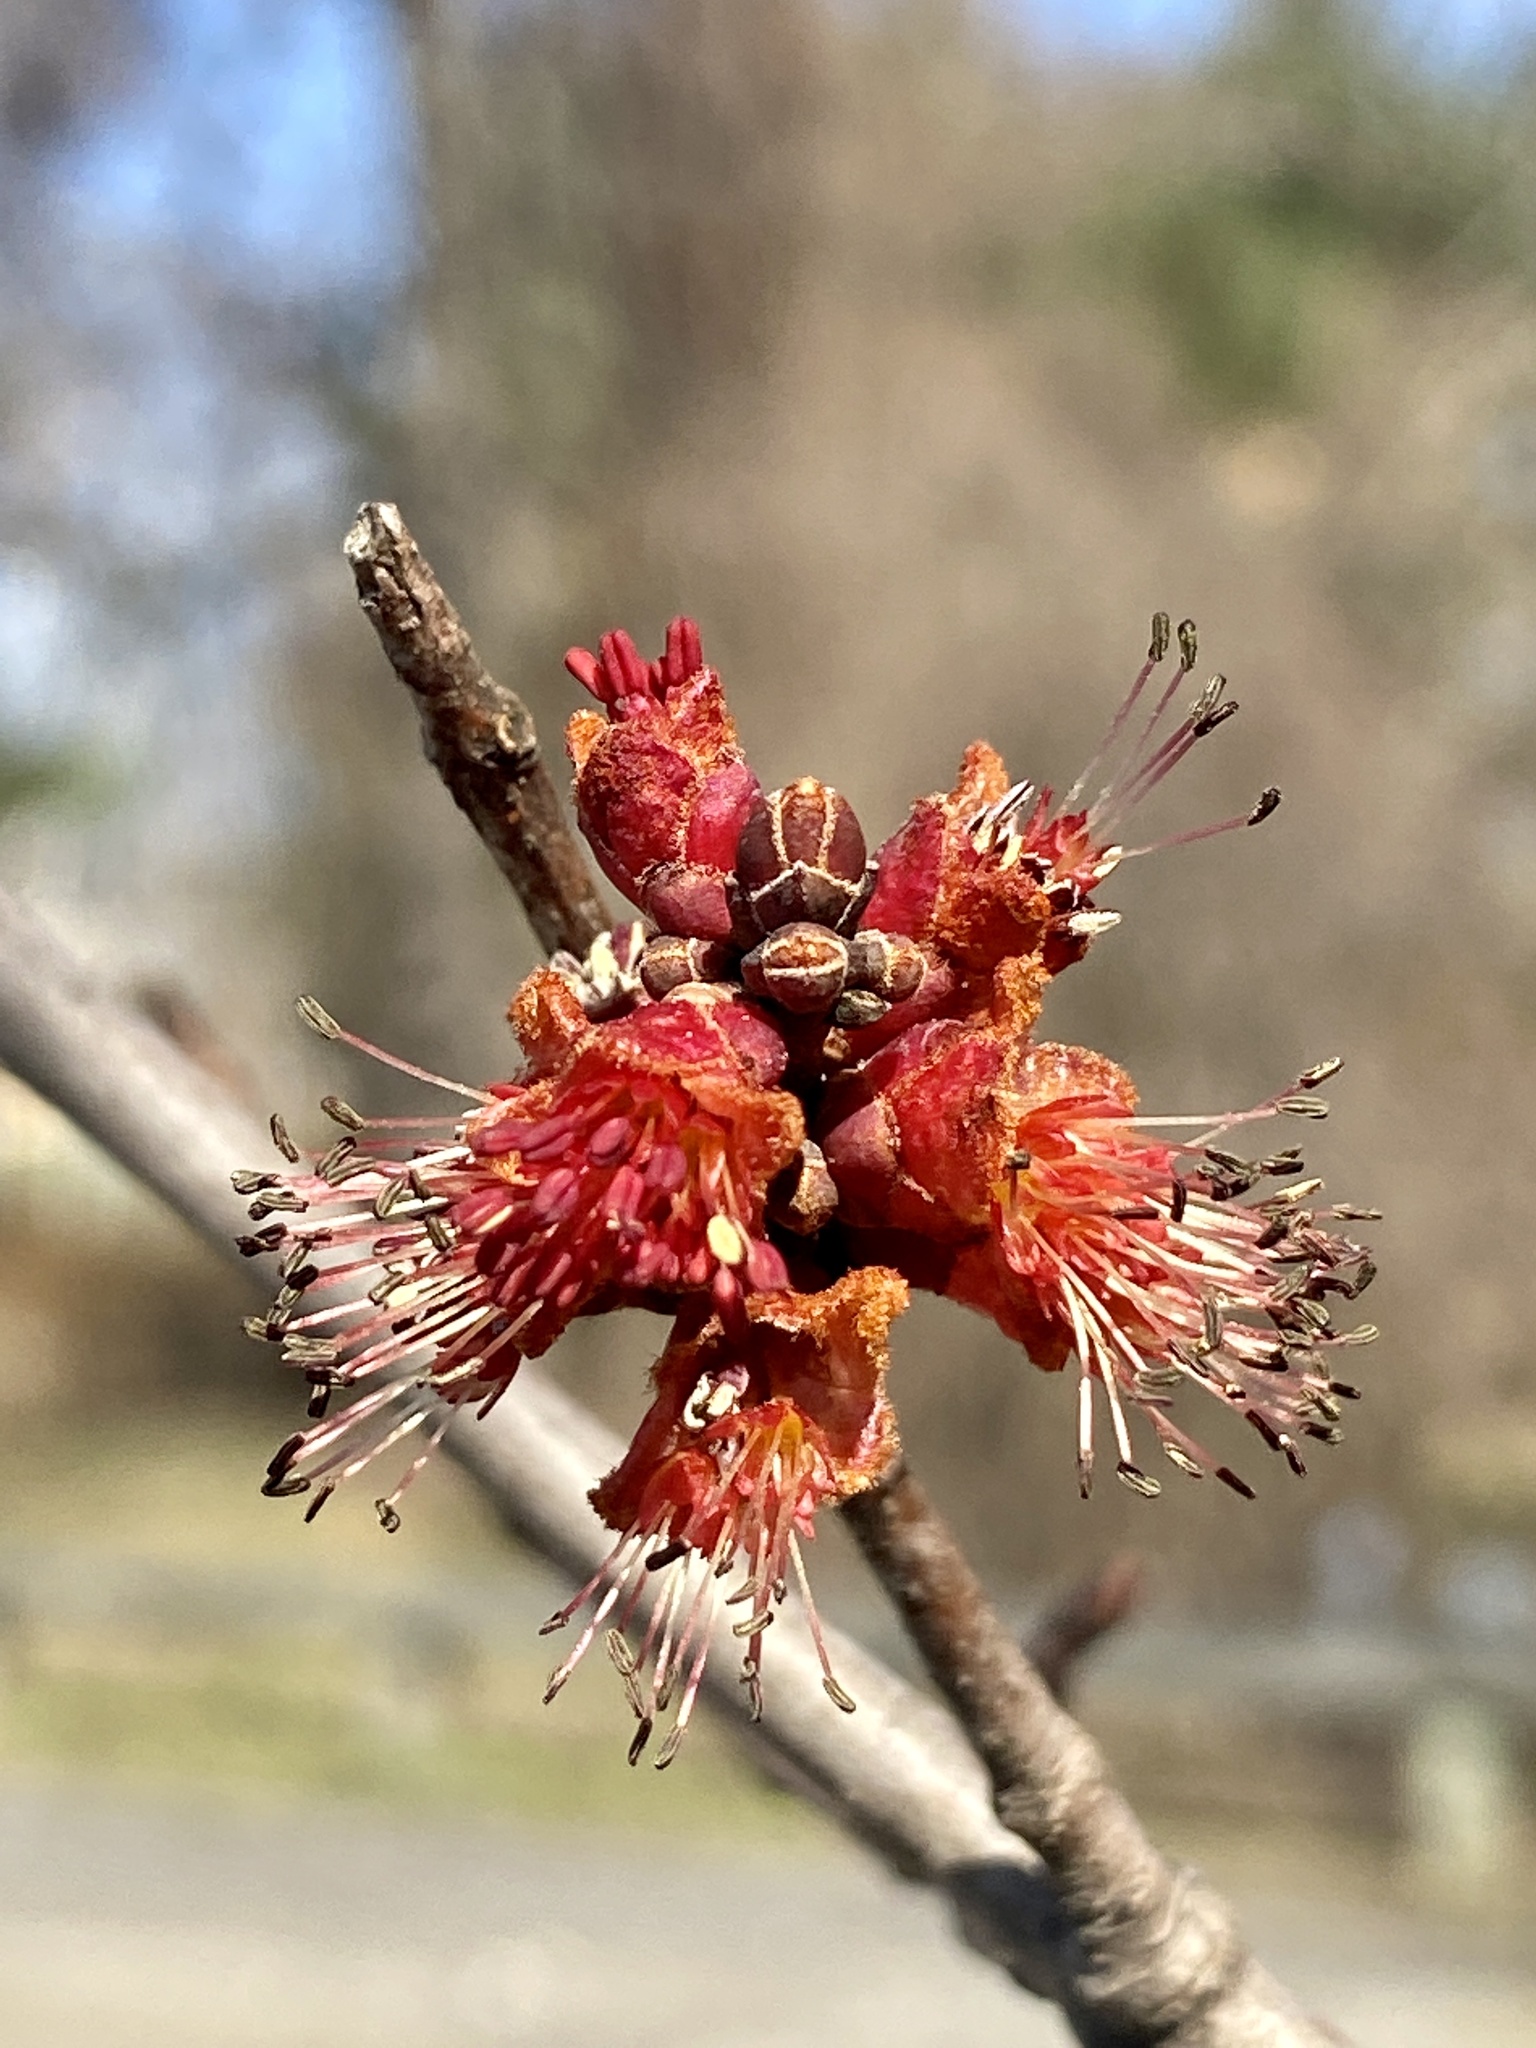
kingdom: Plantae
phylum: Tracheophyta
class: Magnoliopsida
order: Sapindales
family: Sapindaceae
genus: Acer
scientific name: Acer rubrum
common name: Red maple
